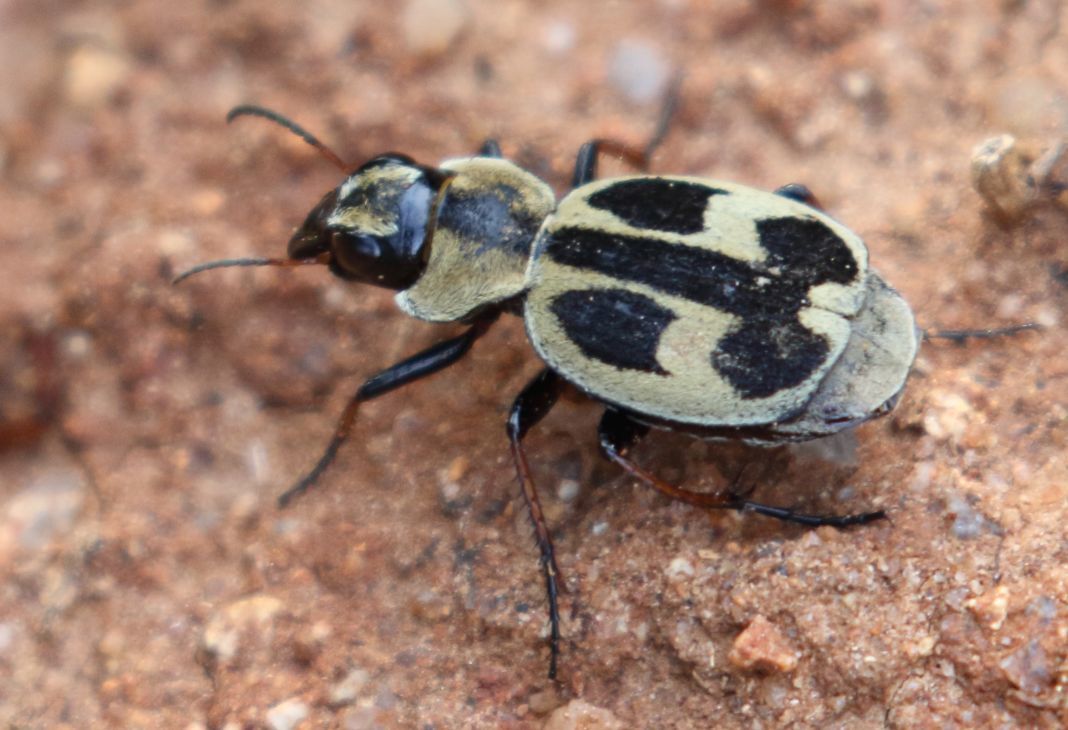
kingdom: Animalia
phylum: Arthropoda
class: Insecta
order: Coleoptera
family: Carabidae
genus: Graphipterus
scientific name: Graphipterus obliteratus
